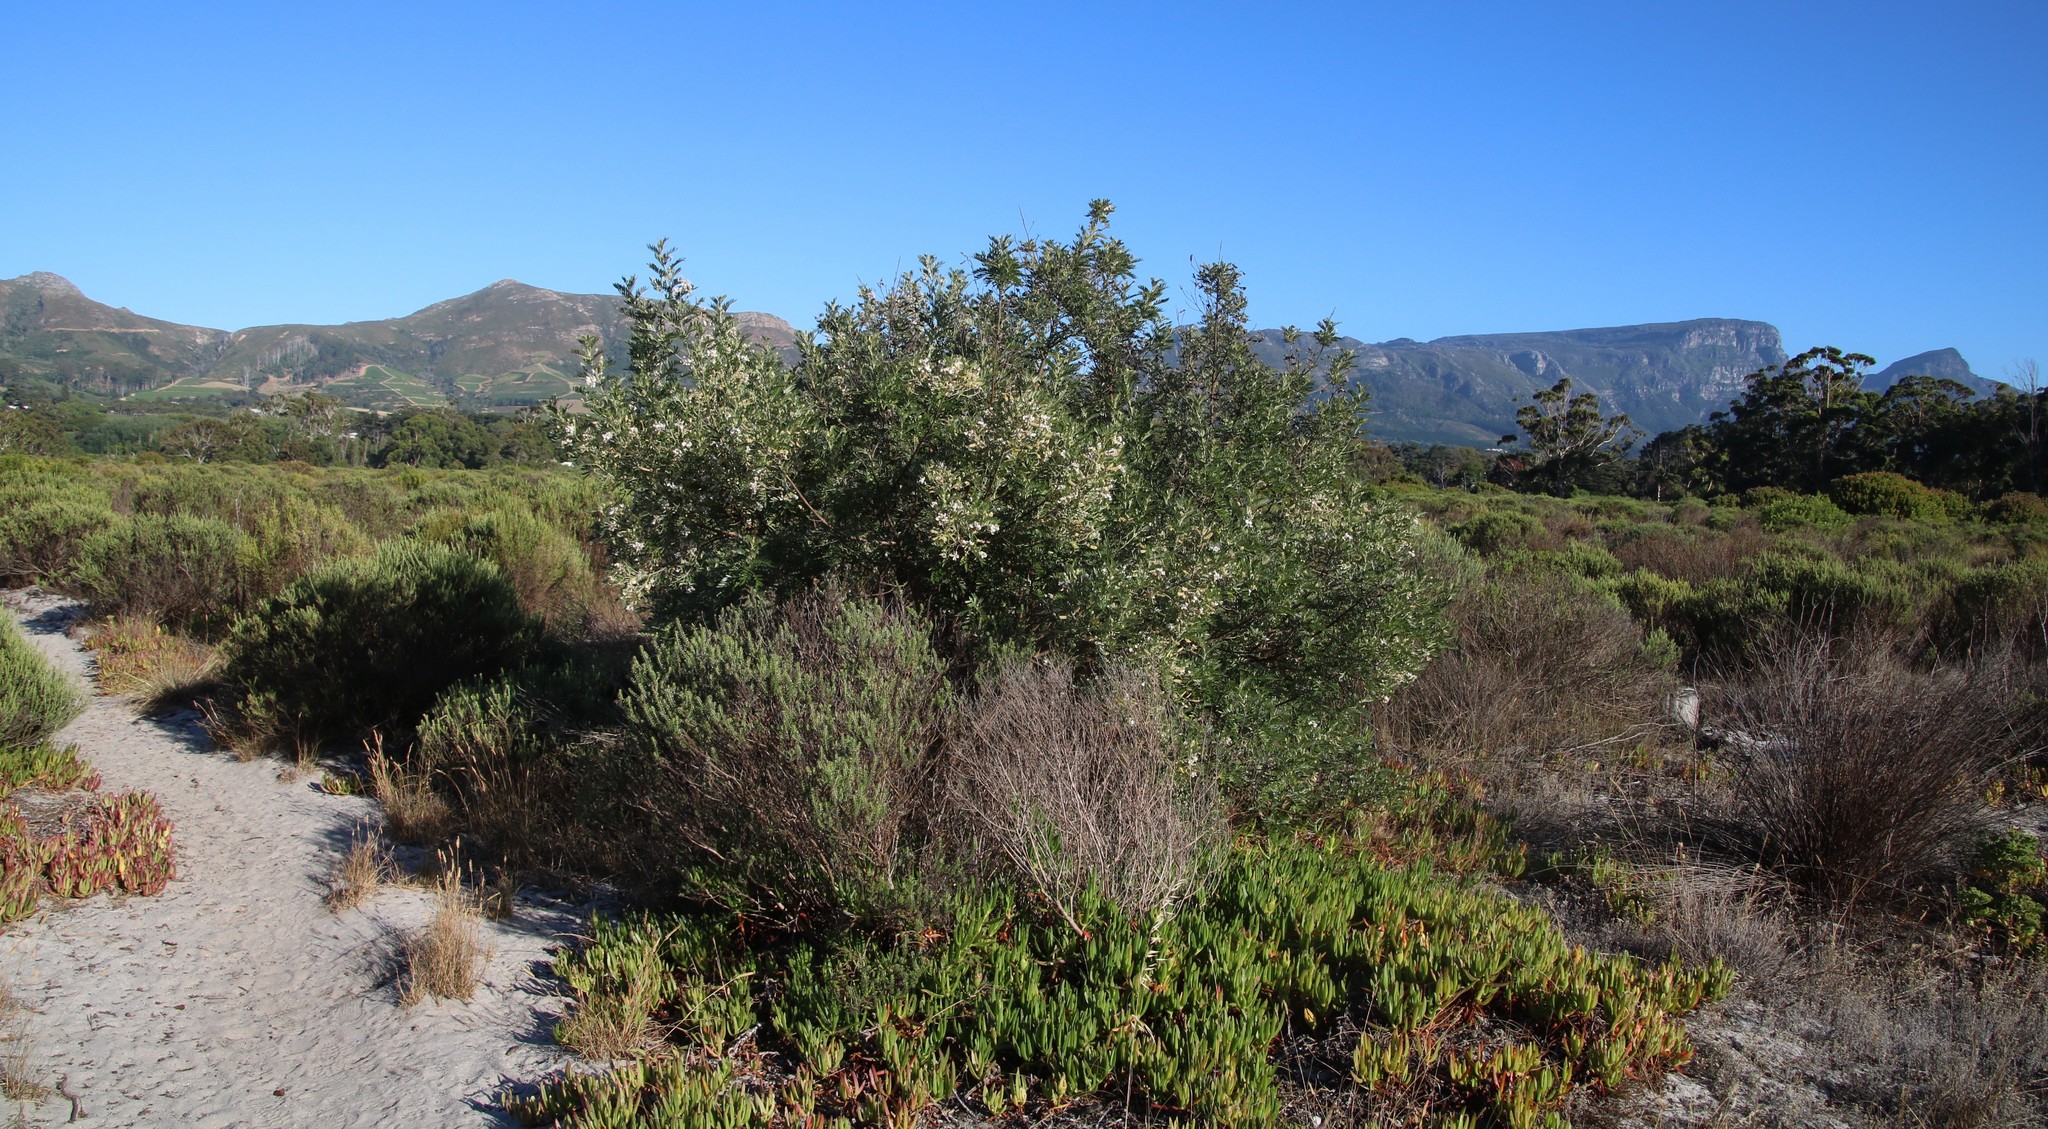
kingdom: Plantae
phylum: Tracheophyta
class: Magnoliopsida
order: Fabales
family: Fabaceae
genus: Virgilia
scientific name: Virgilia oroboides
